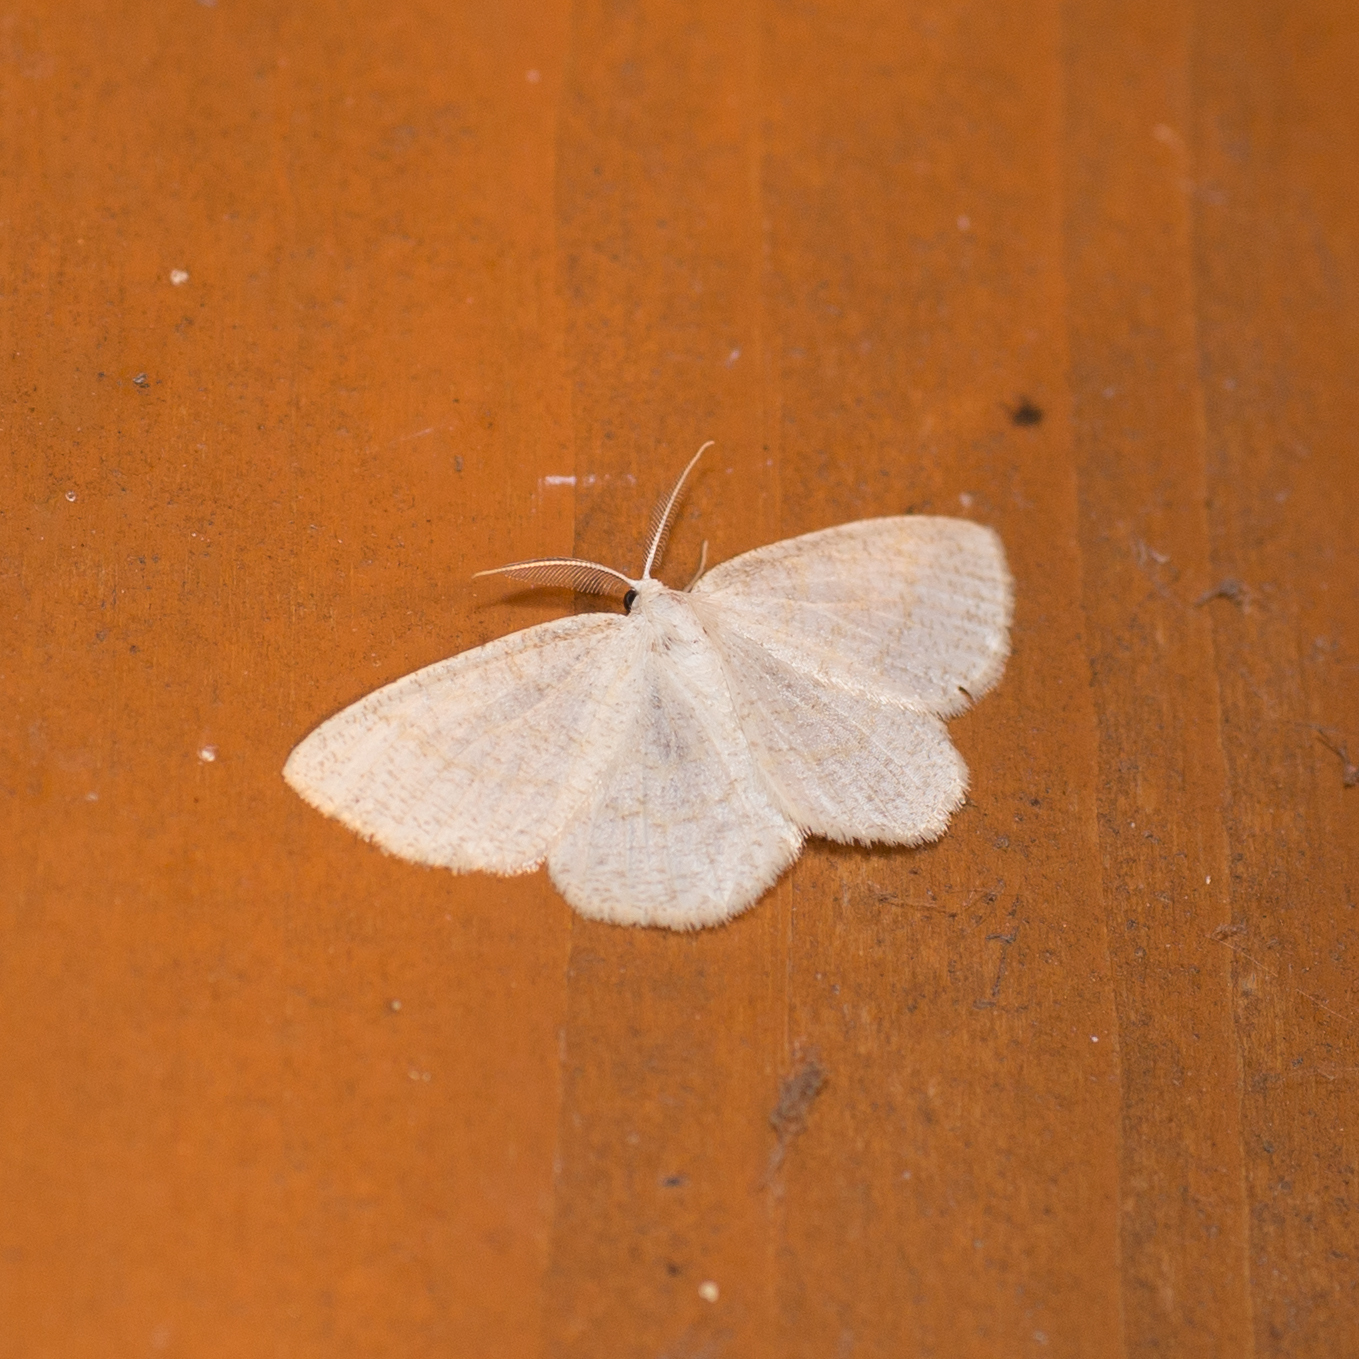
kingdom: Animalia
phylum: Arthropoda
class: Insecta
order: Lepidoptera
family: Geometridae
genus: Cabera
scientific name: Cabera exanthemata
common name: Common wave
